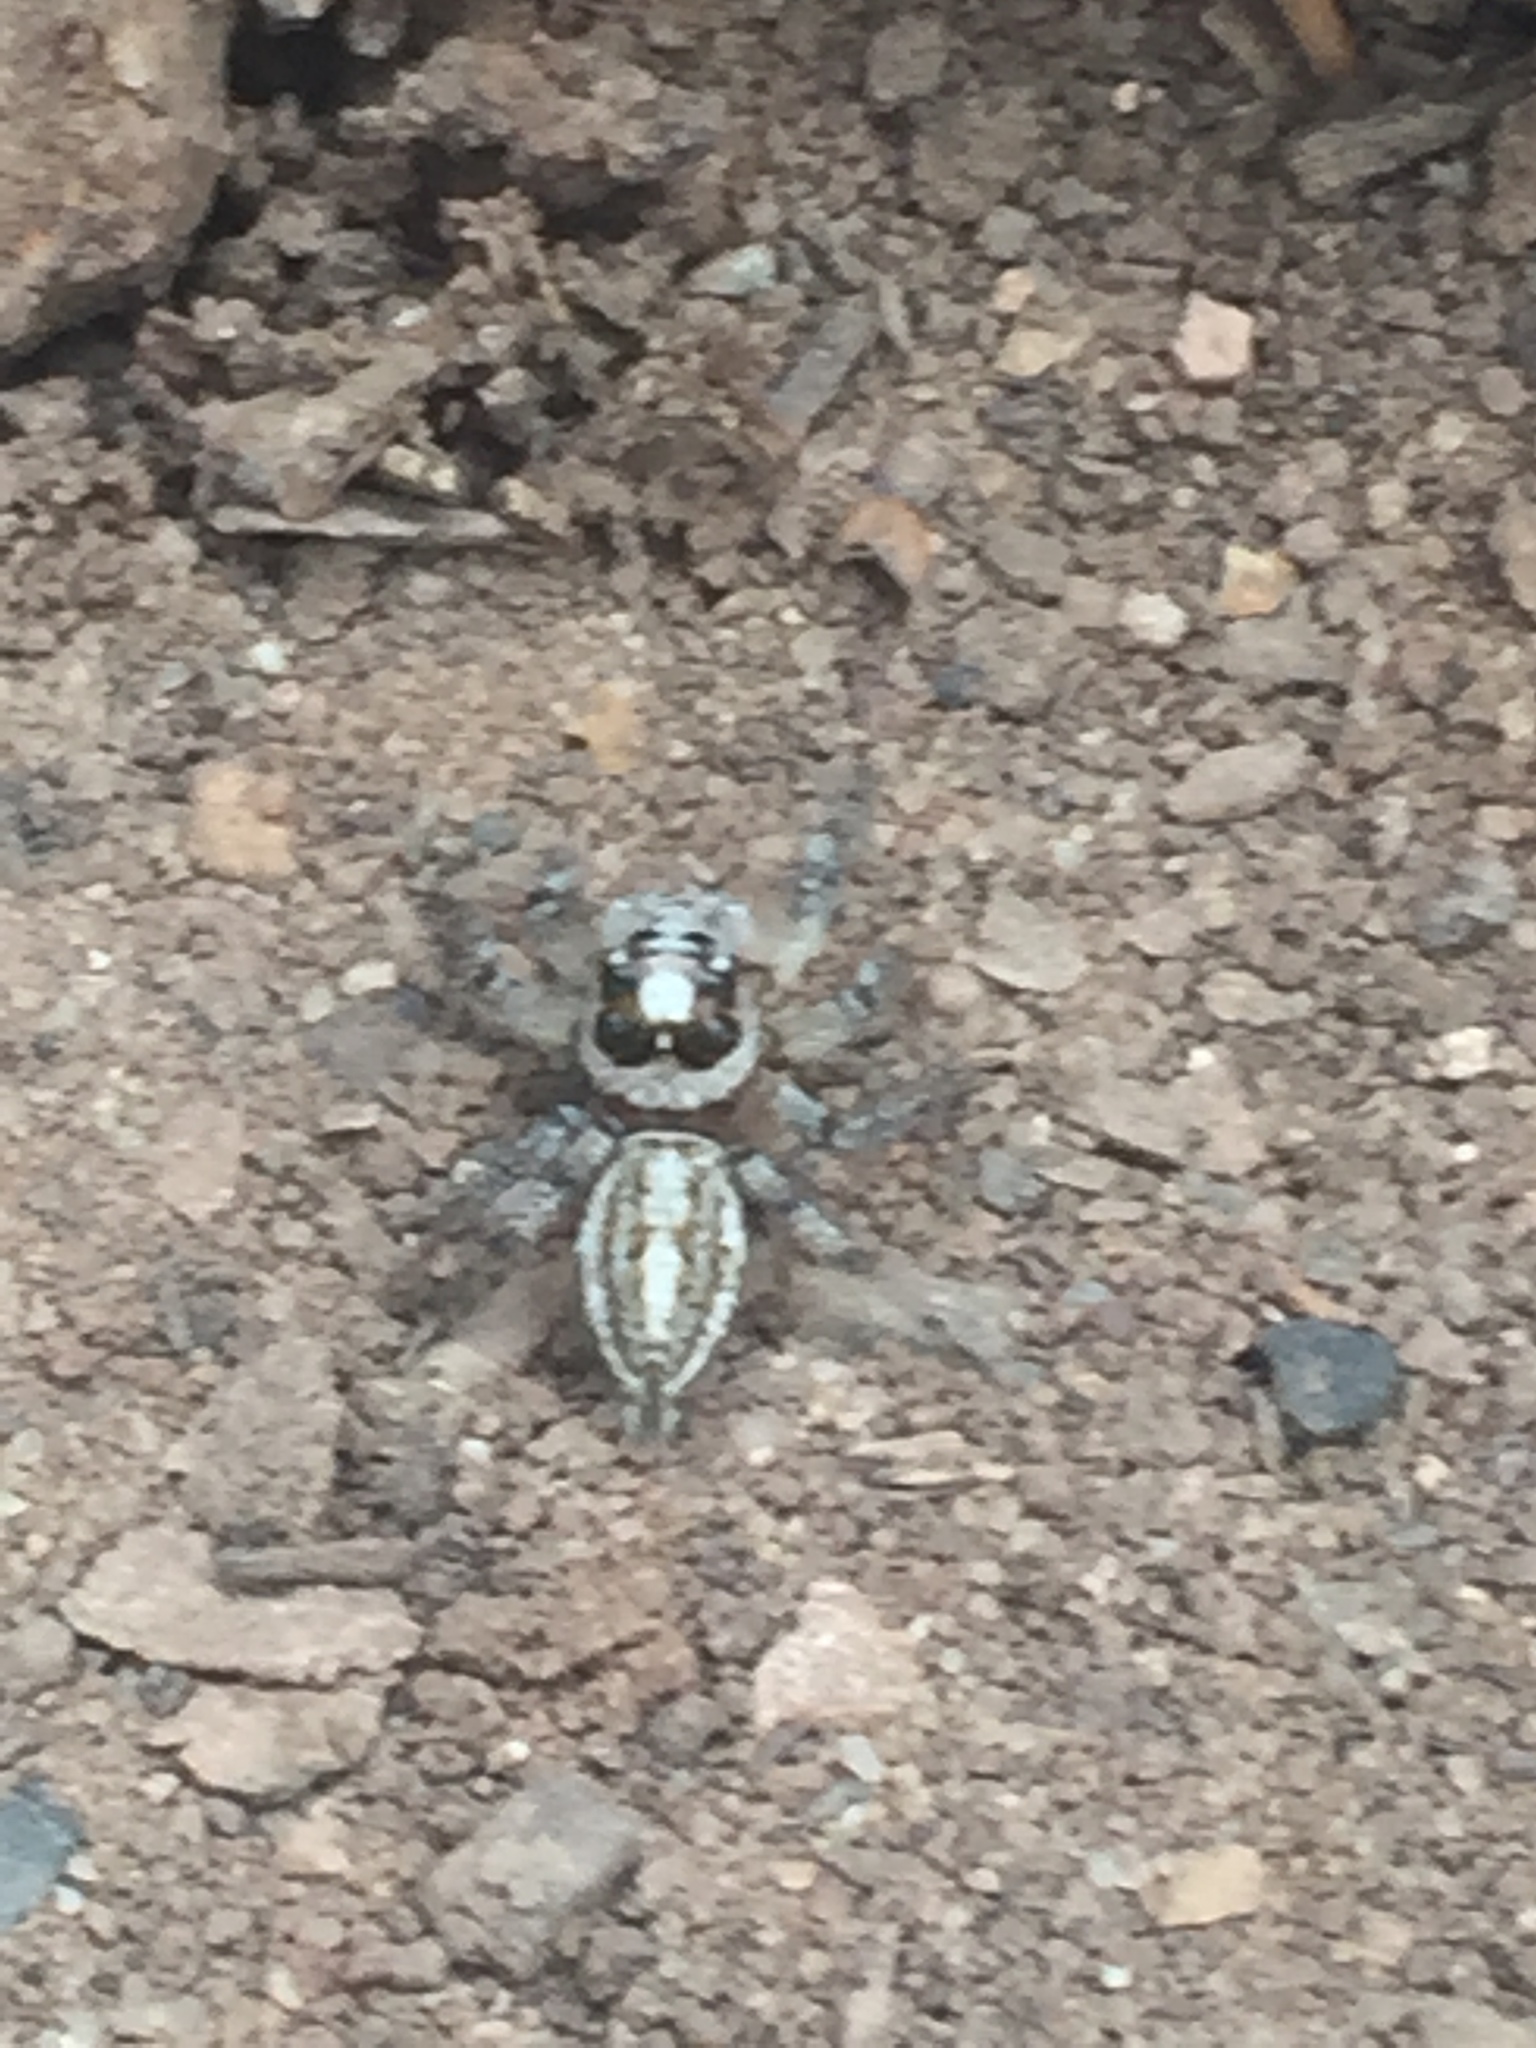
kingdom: Animalia
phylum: Arthropoda
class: Arachnida
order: Araneae
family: Salticidae
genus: Colonus
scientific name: Colonus hesperus
